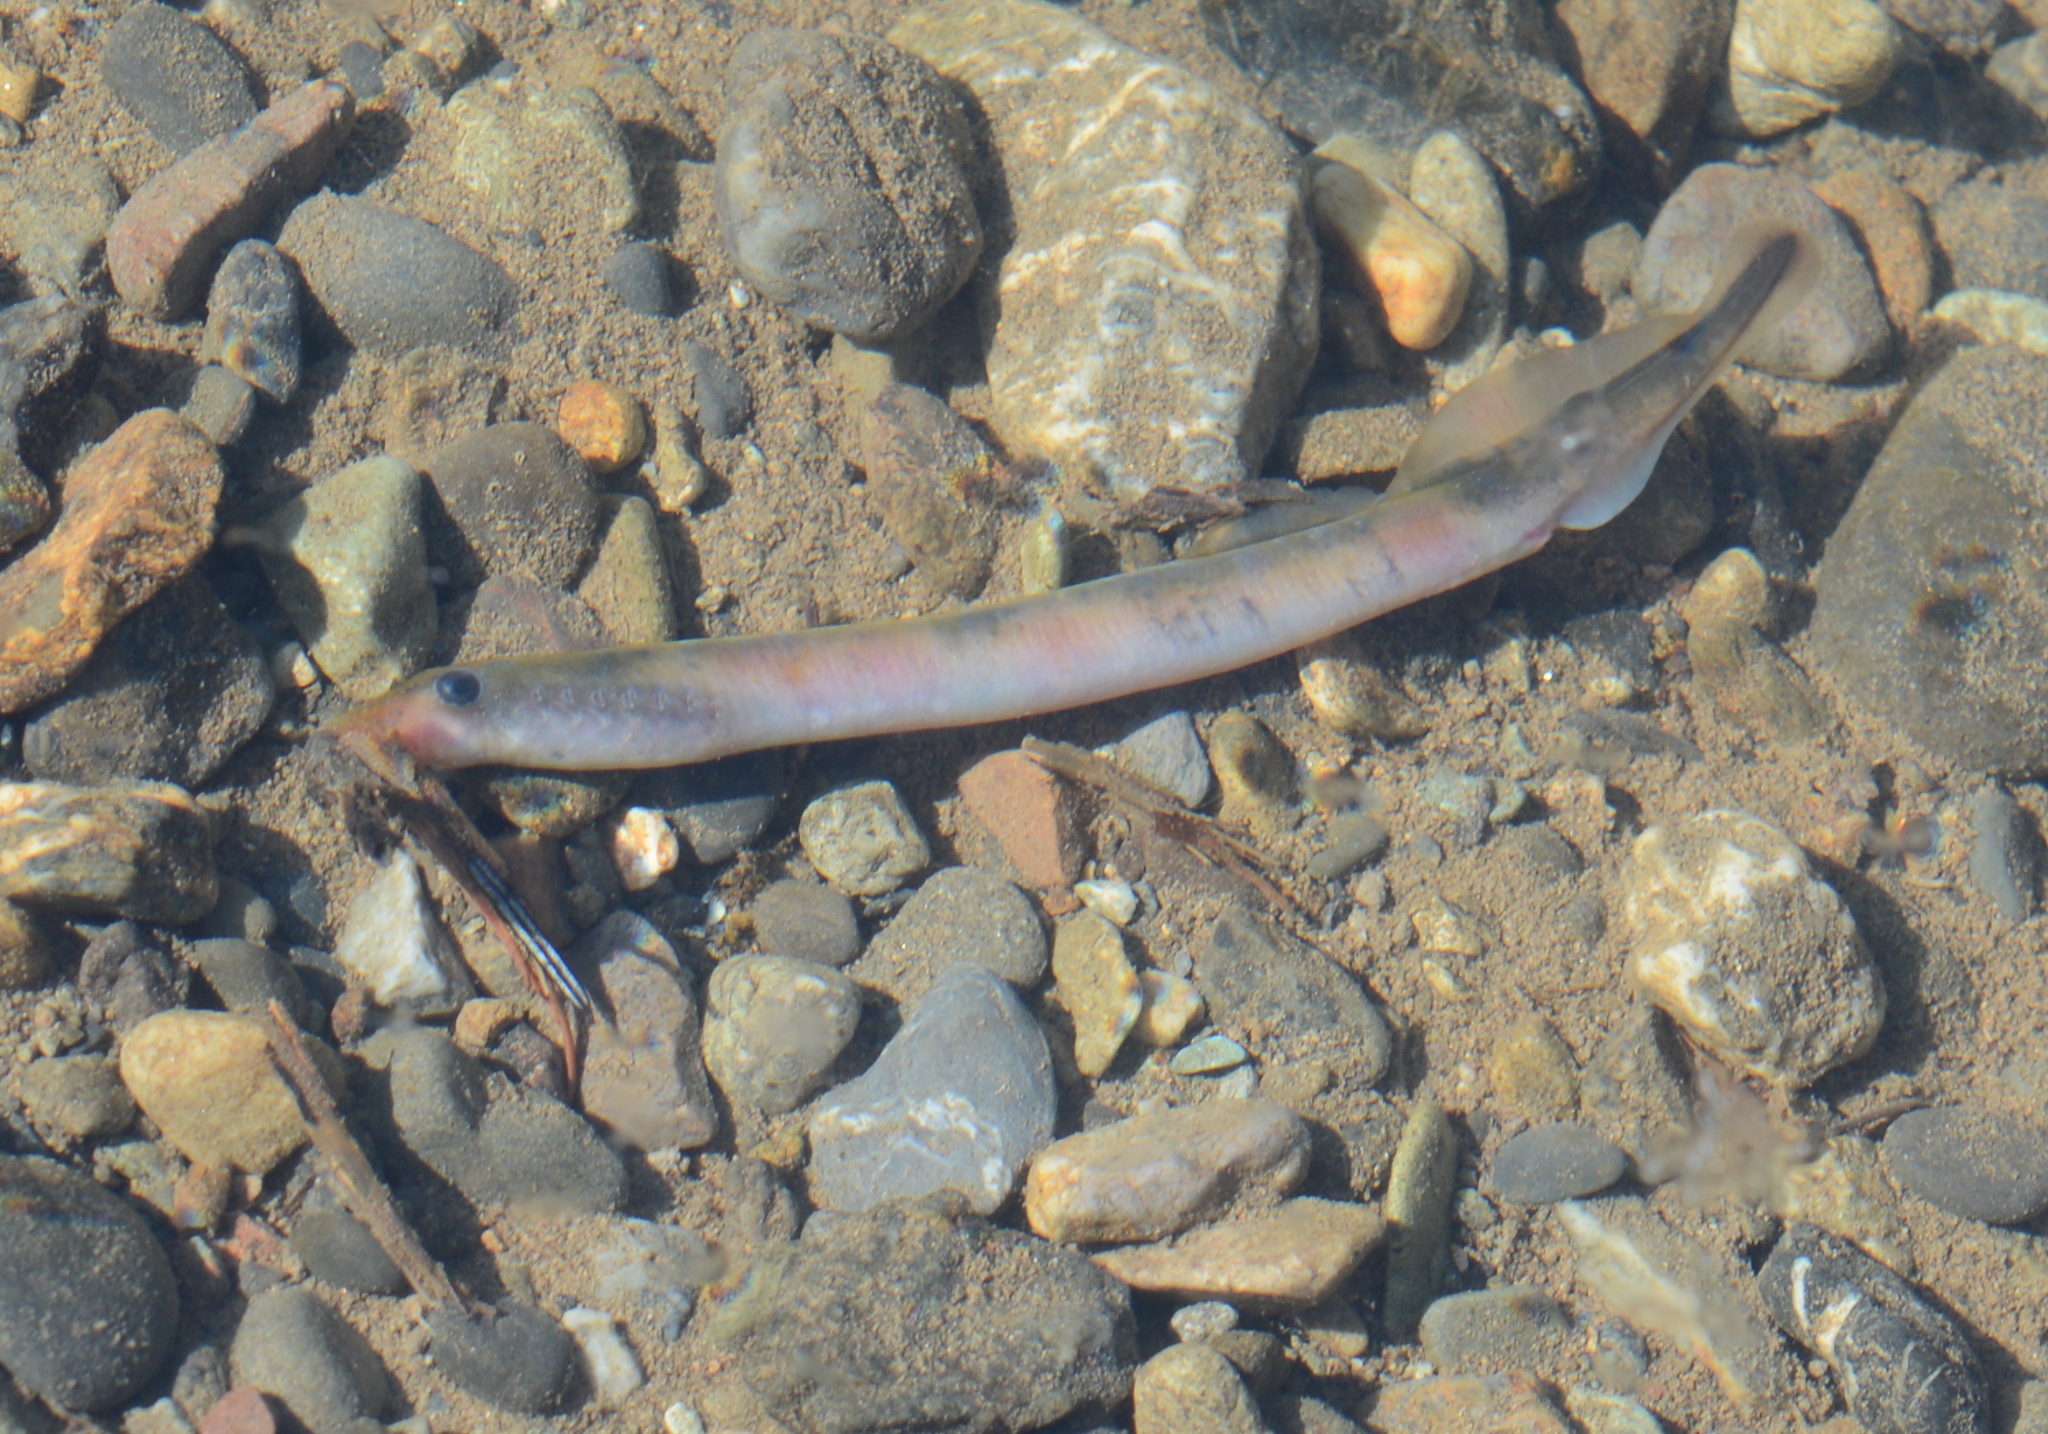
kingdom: Animalia
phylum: Chordata
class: Petromyzonti
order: Petromyzontiformes
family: Petromyzontidae
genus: Lampetra
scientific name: Lampetra richardsoni
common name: Western brook lamprey
